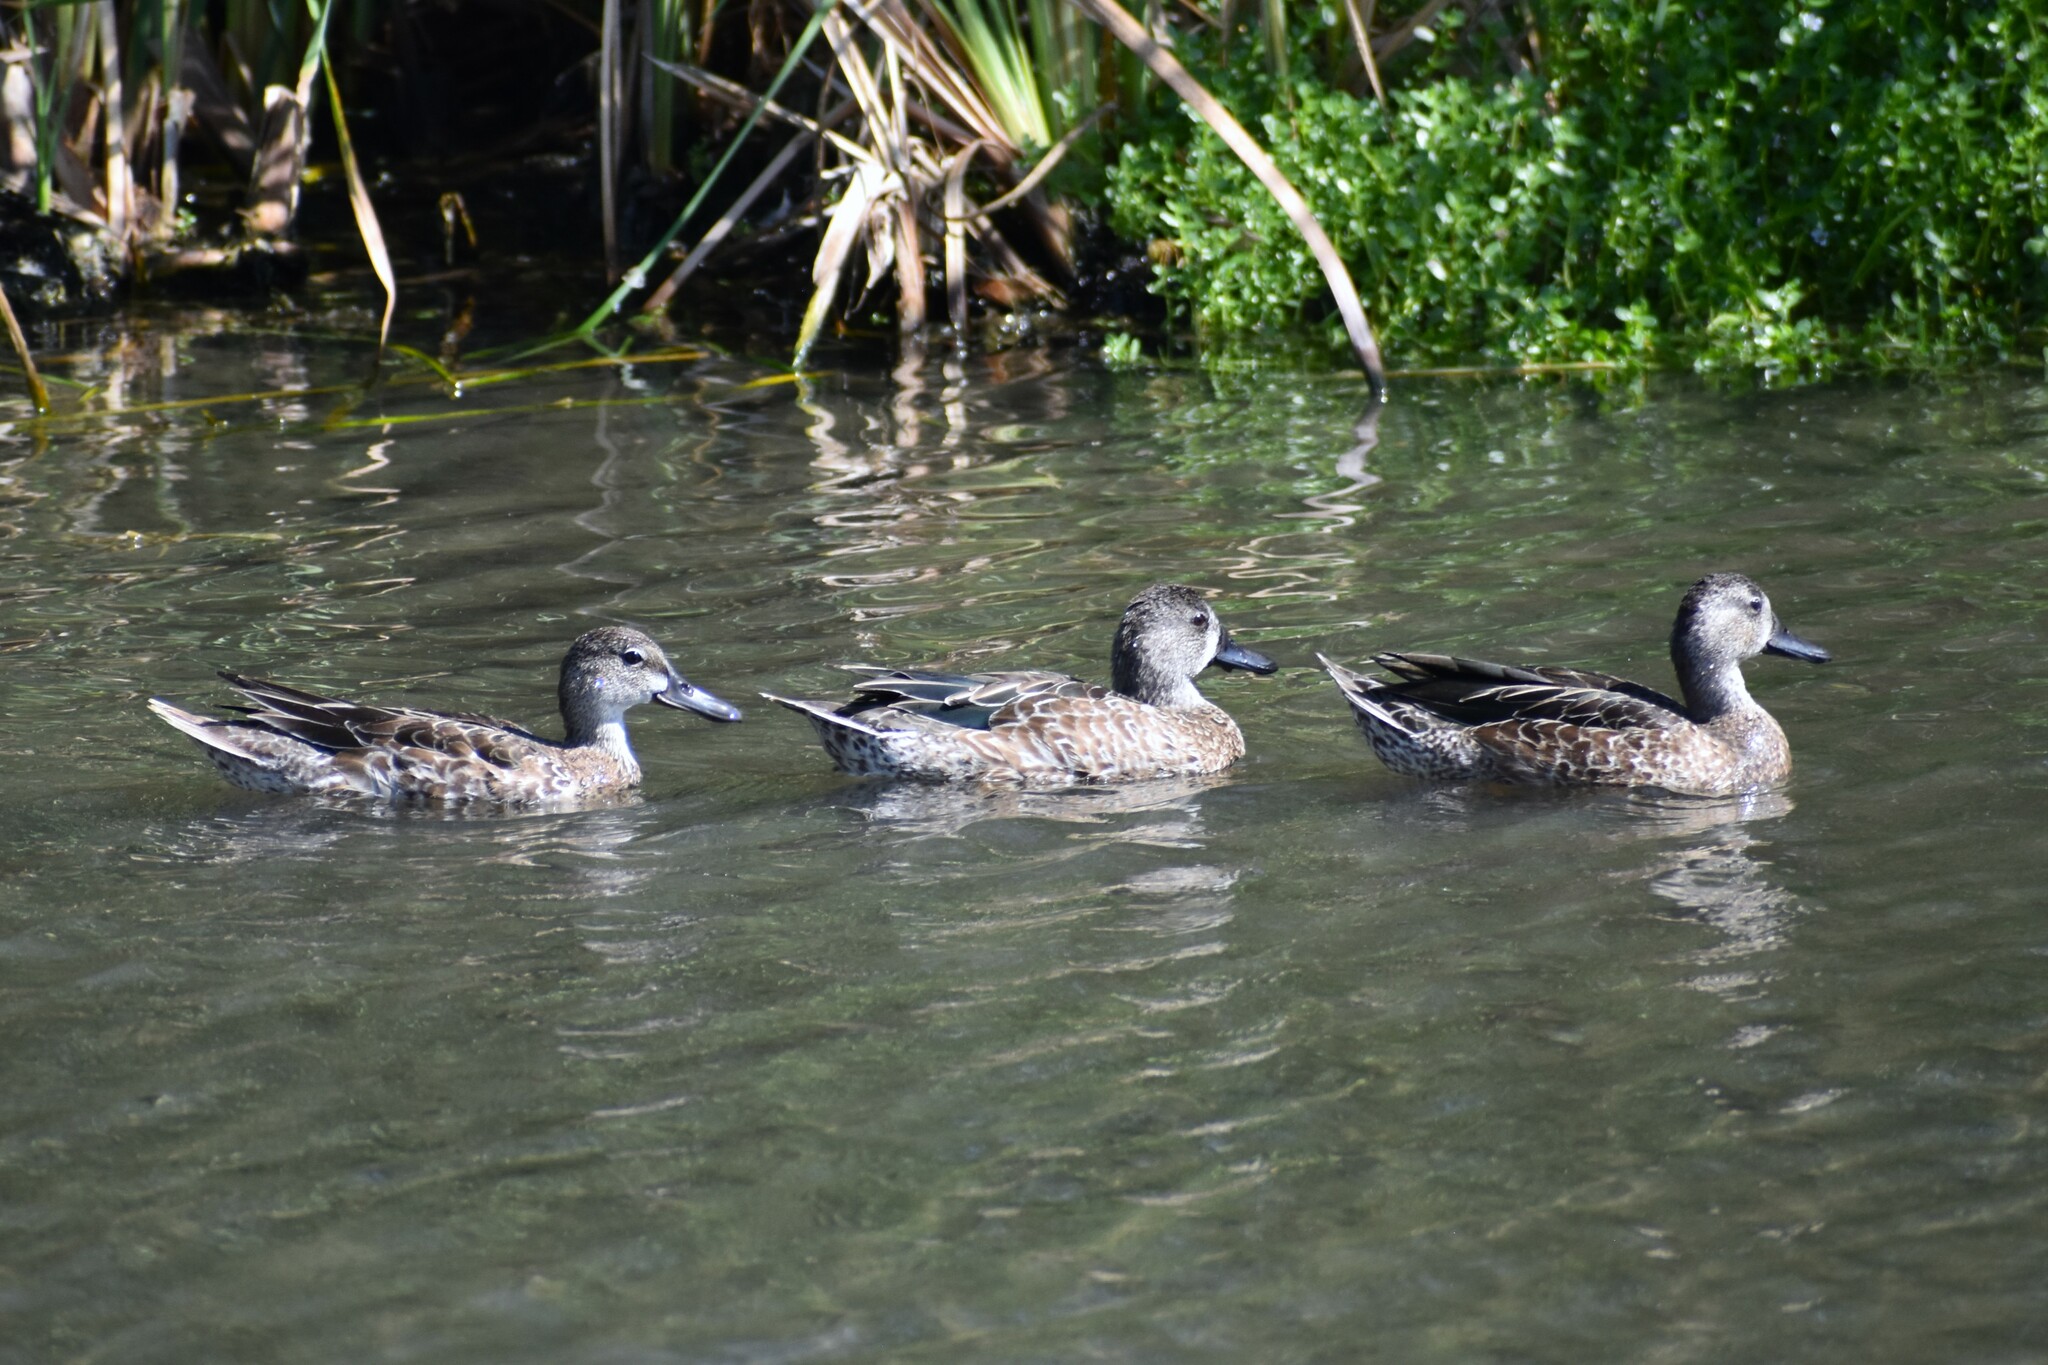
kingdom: Animalia
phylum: Chordata
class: Aves
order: Anseriformes
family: Anatidae
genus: Spatula
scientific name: Spatula discors
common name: Blue-winged teal
